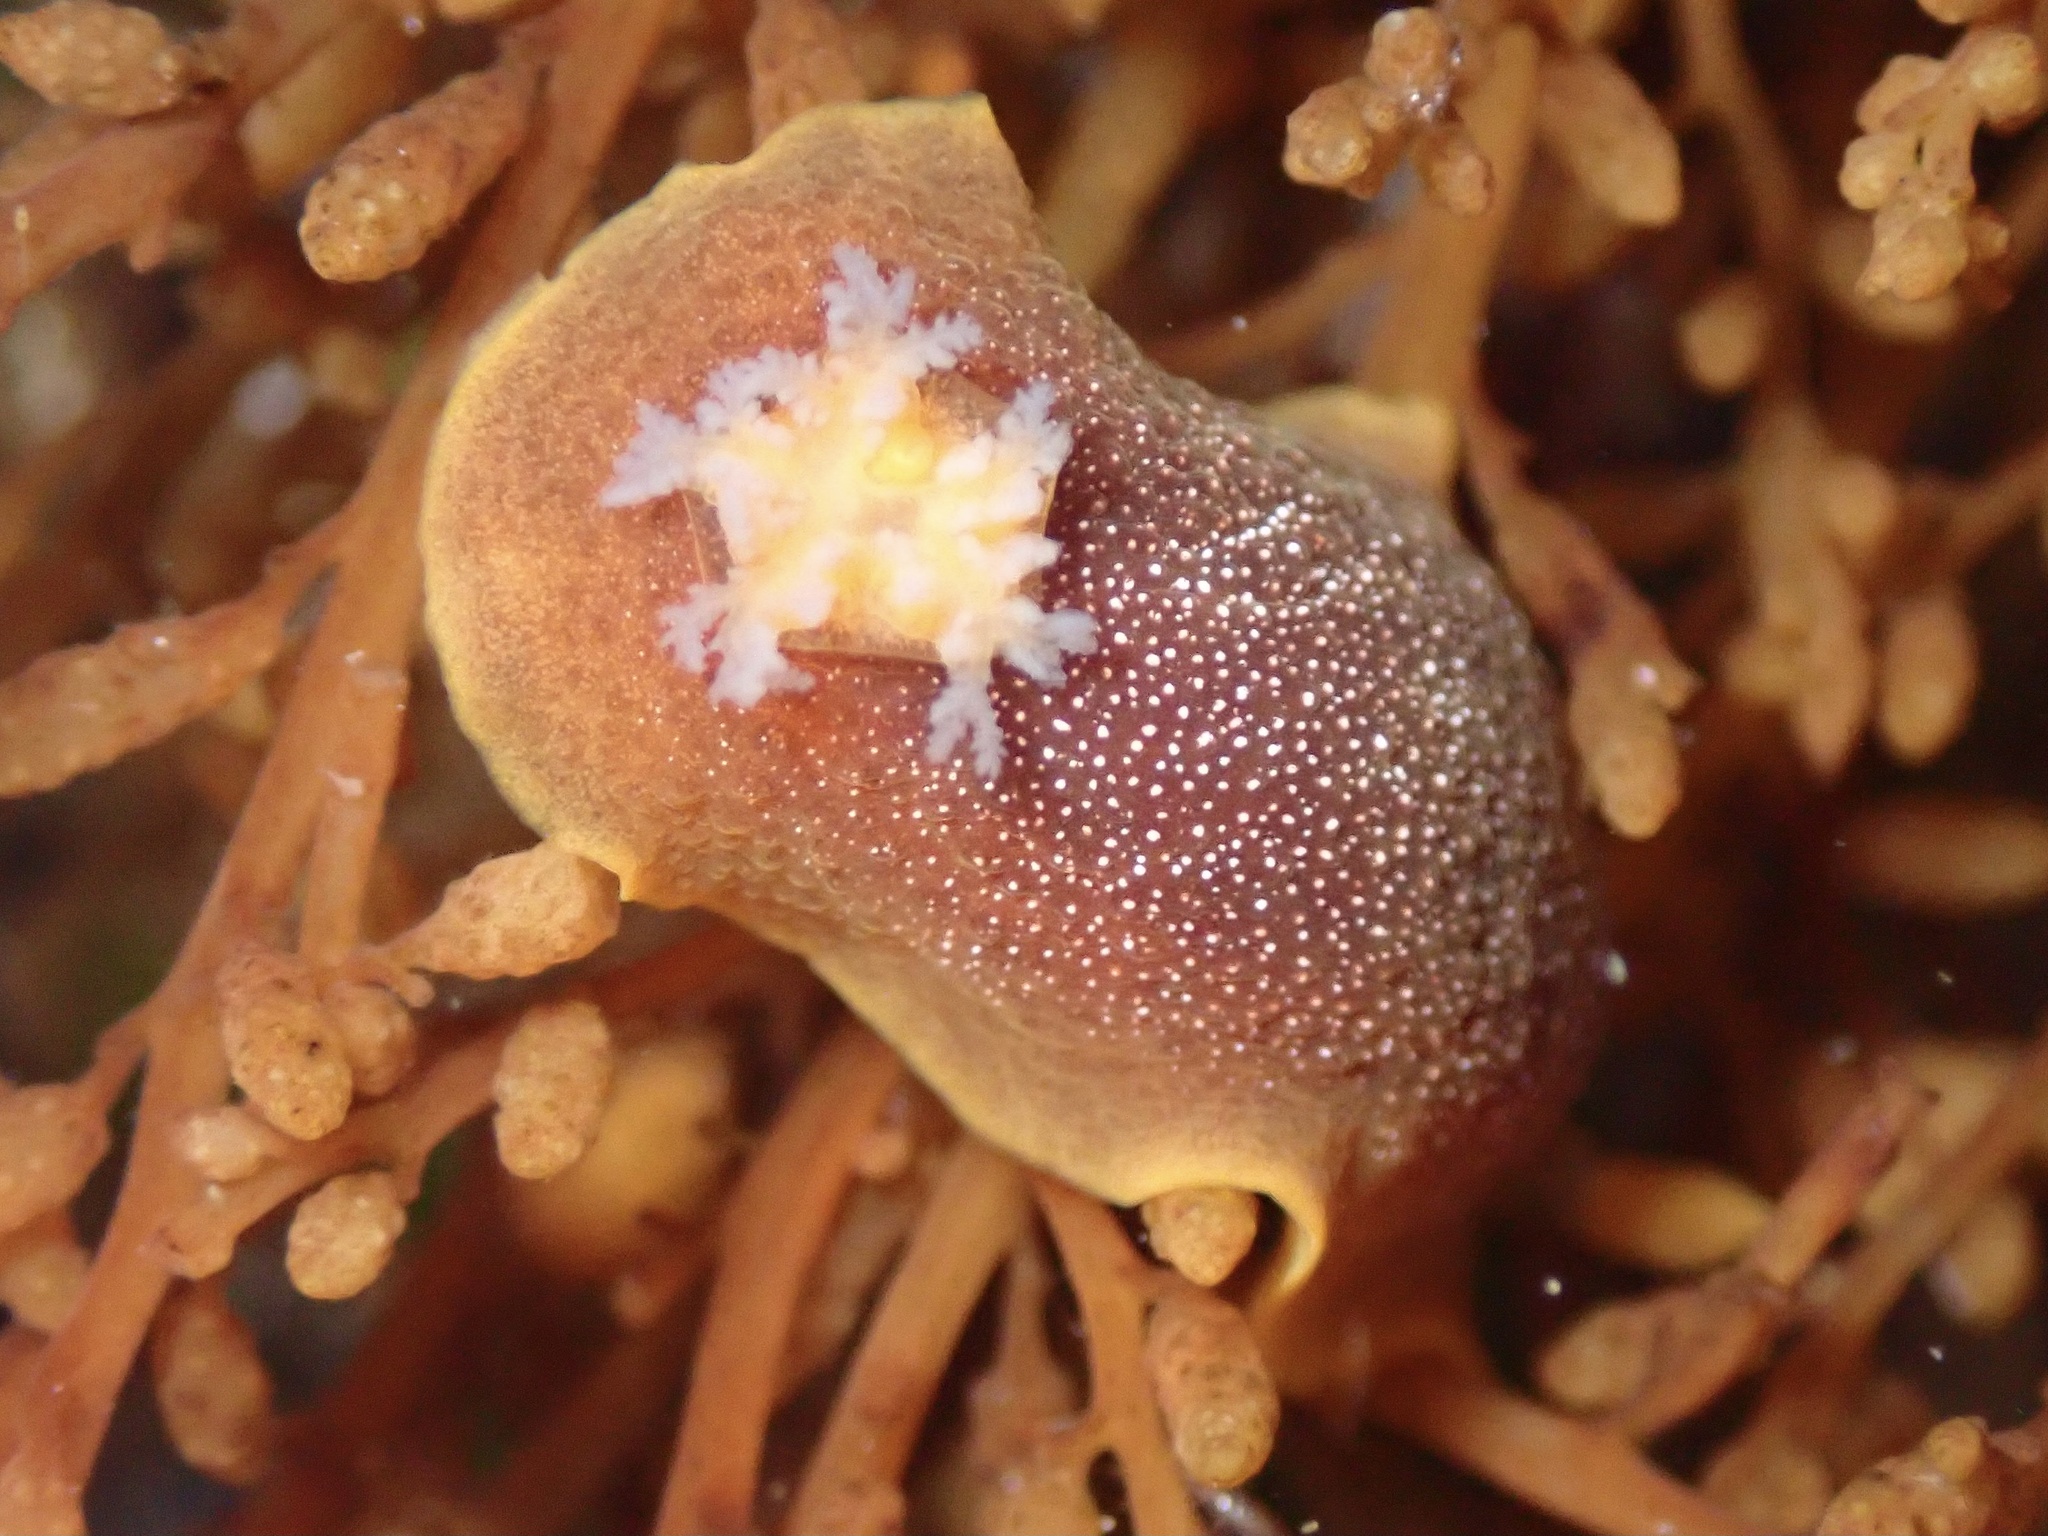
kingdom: Animalia
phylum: Mollusca
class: Gastropoda
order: Nudibranchia
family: Dendrodorididae
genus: Doriopsilla
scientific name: Doriopsilla albopunctata
